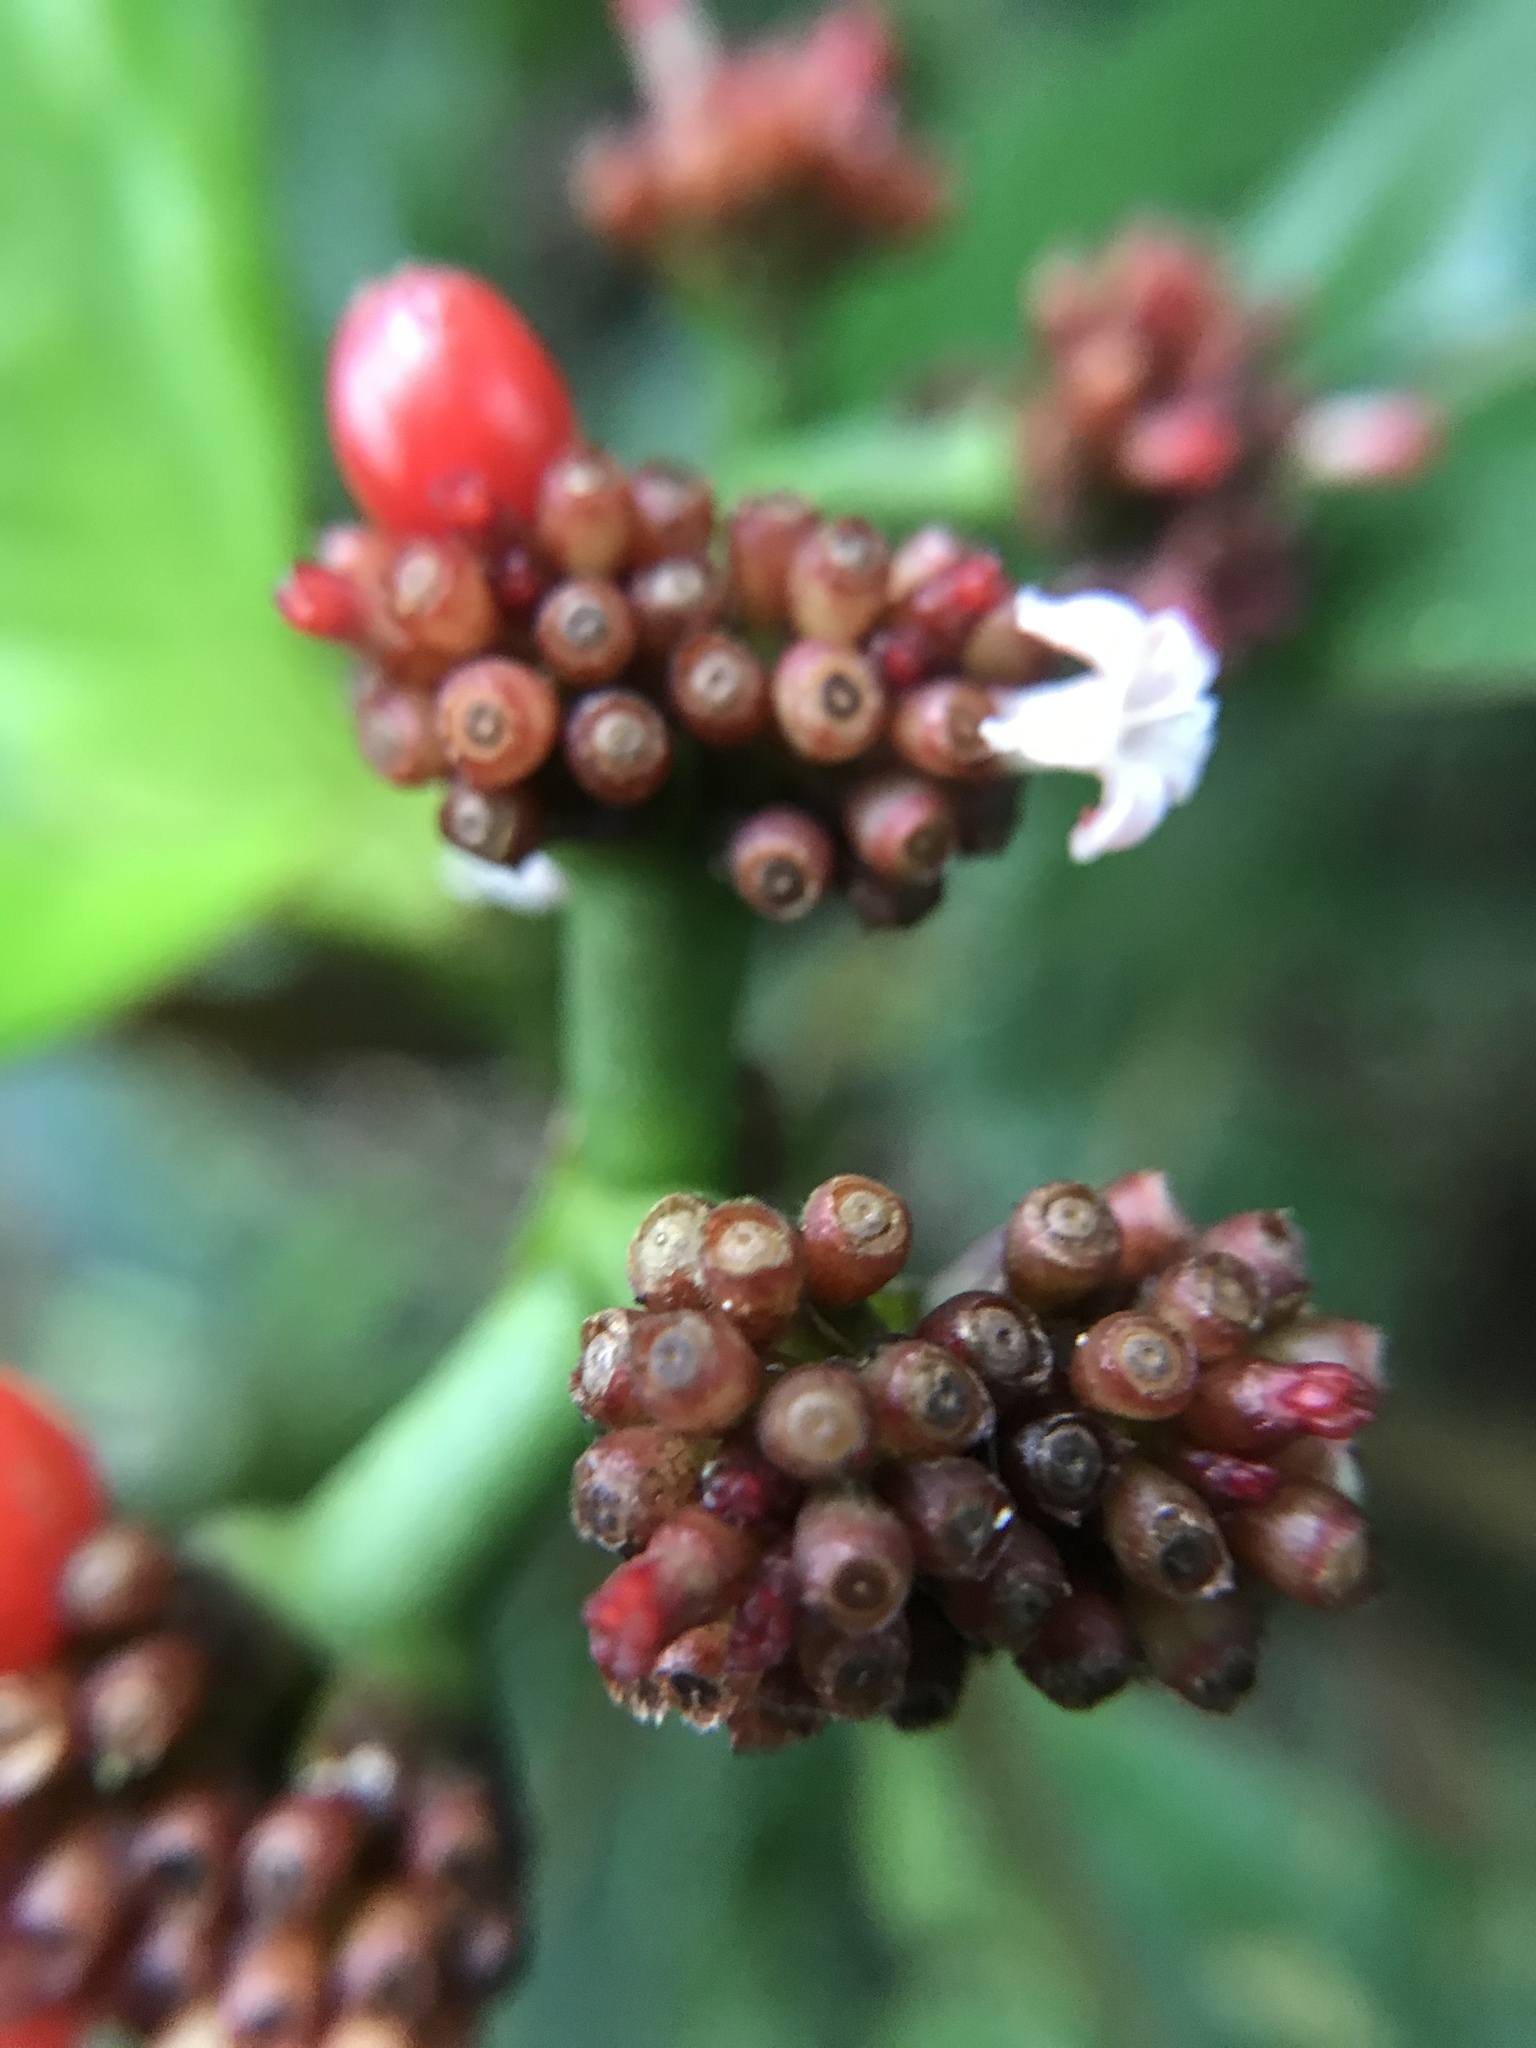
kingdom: Plantae
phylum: Tracheophyta
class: Magnoliopsida
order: Gentianales
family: Rubiaceae
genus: Notopleura
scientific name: Notopleura uliginosa
